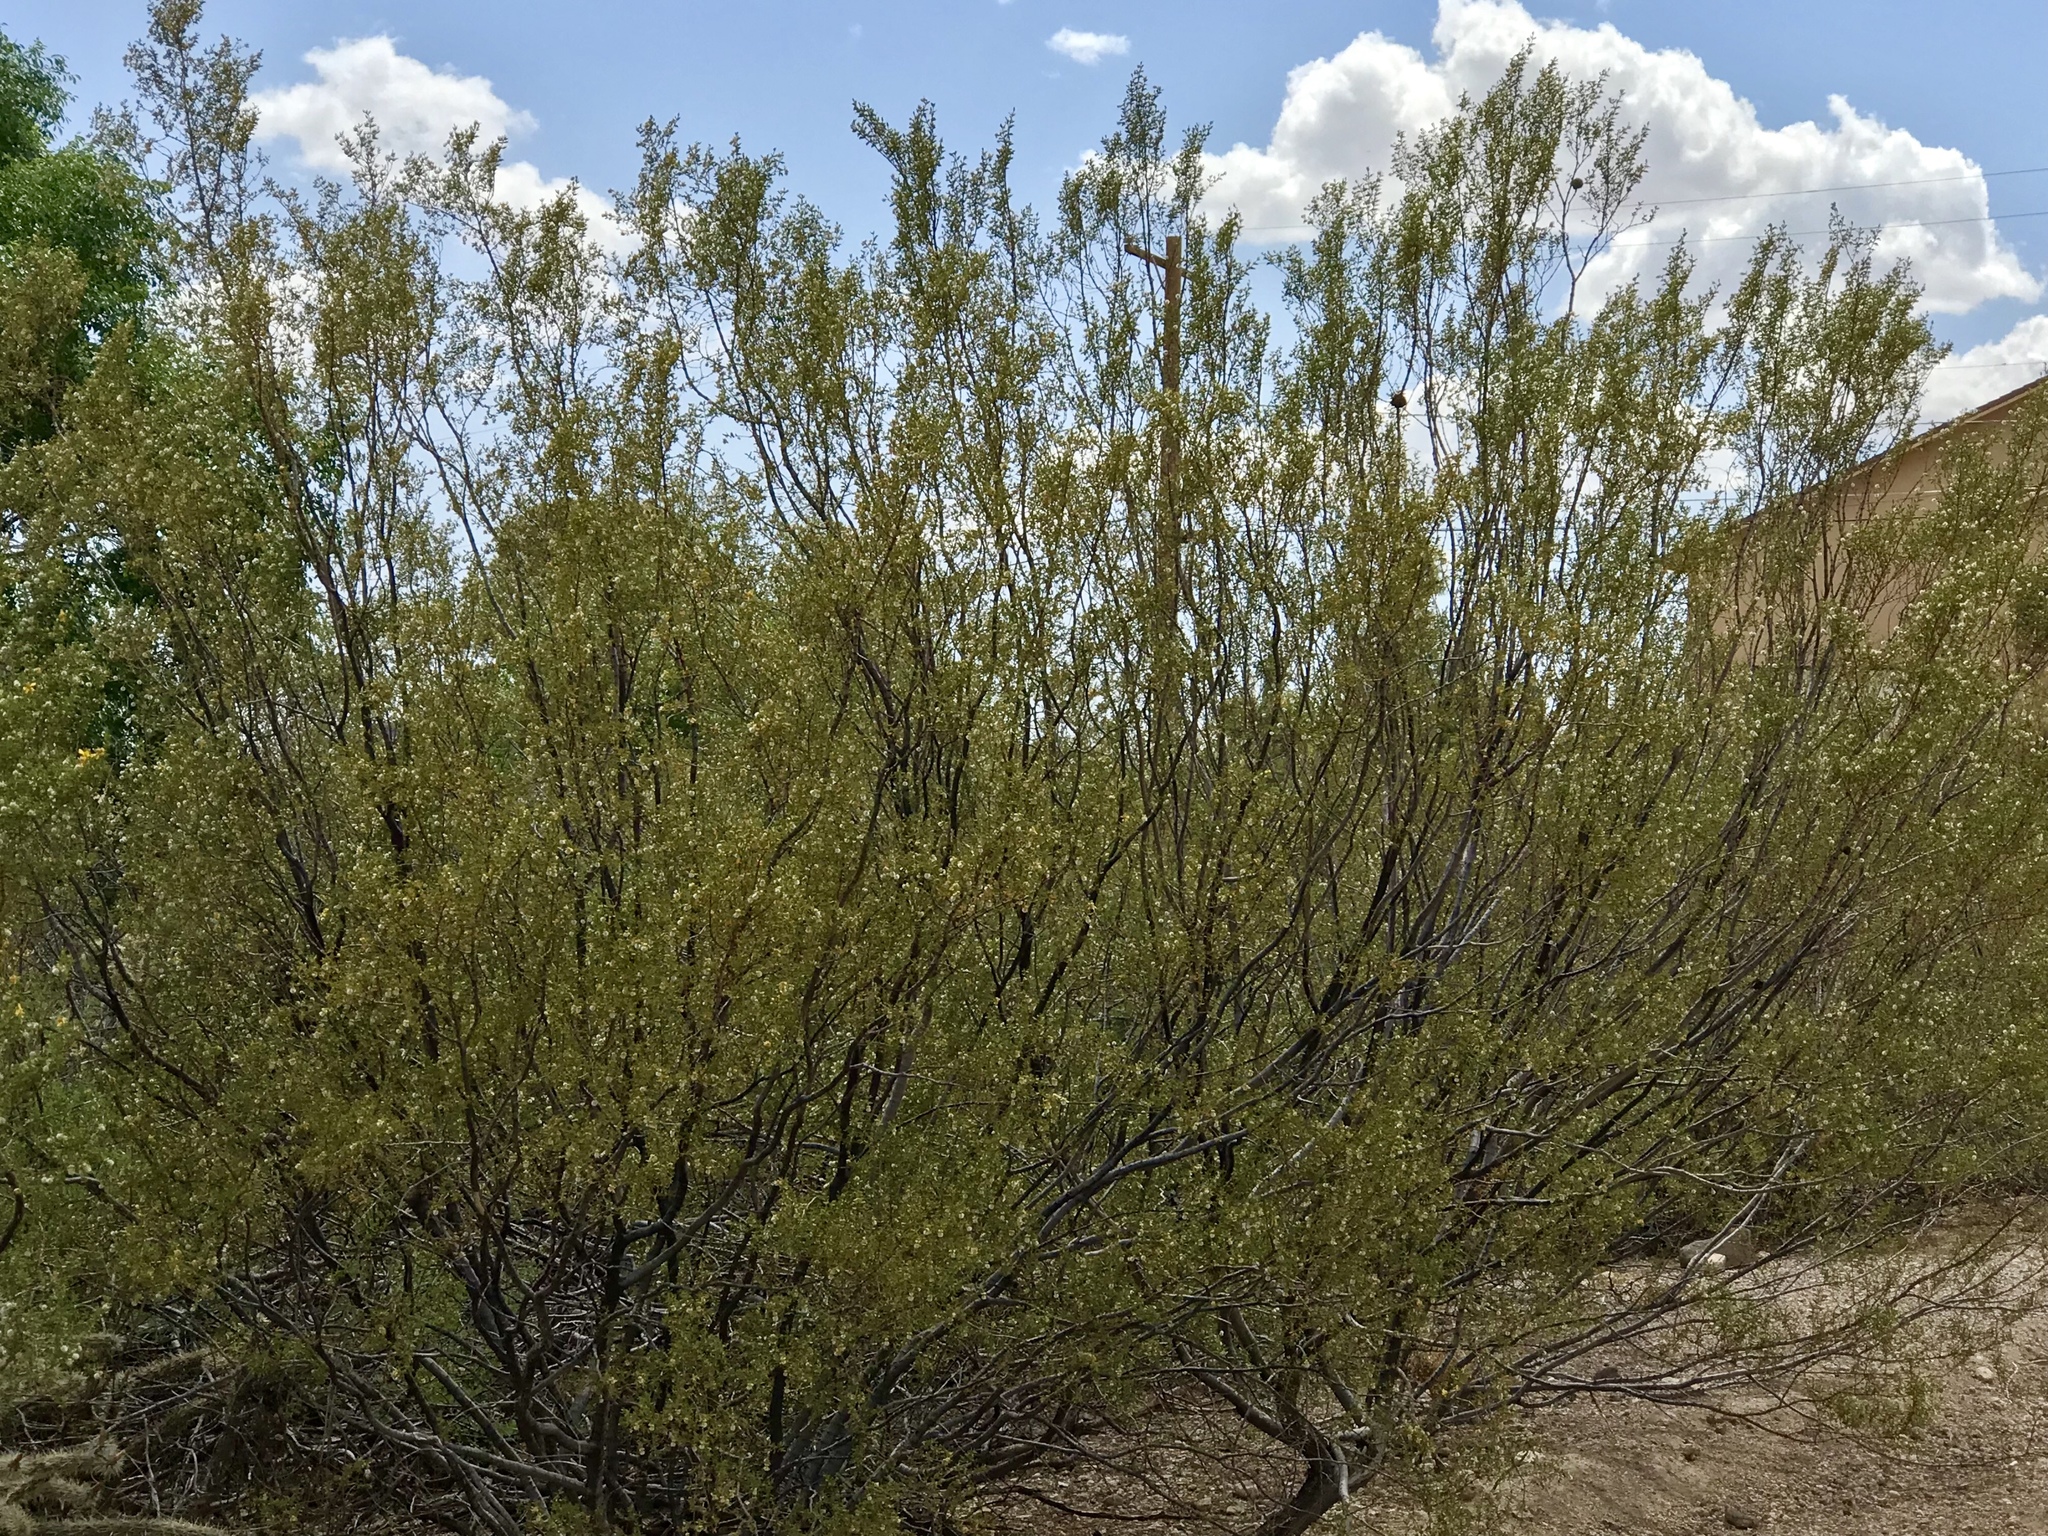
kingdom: Plantae
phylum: Tracheophyta
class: Magnoliopsida
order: Zygophyllales
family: Zygophyllaceae
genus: Larrea
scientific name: Larrea tridentata
